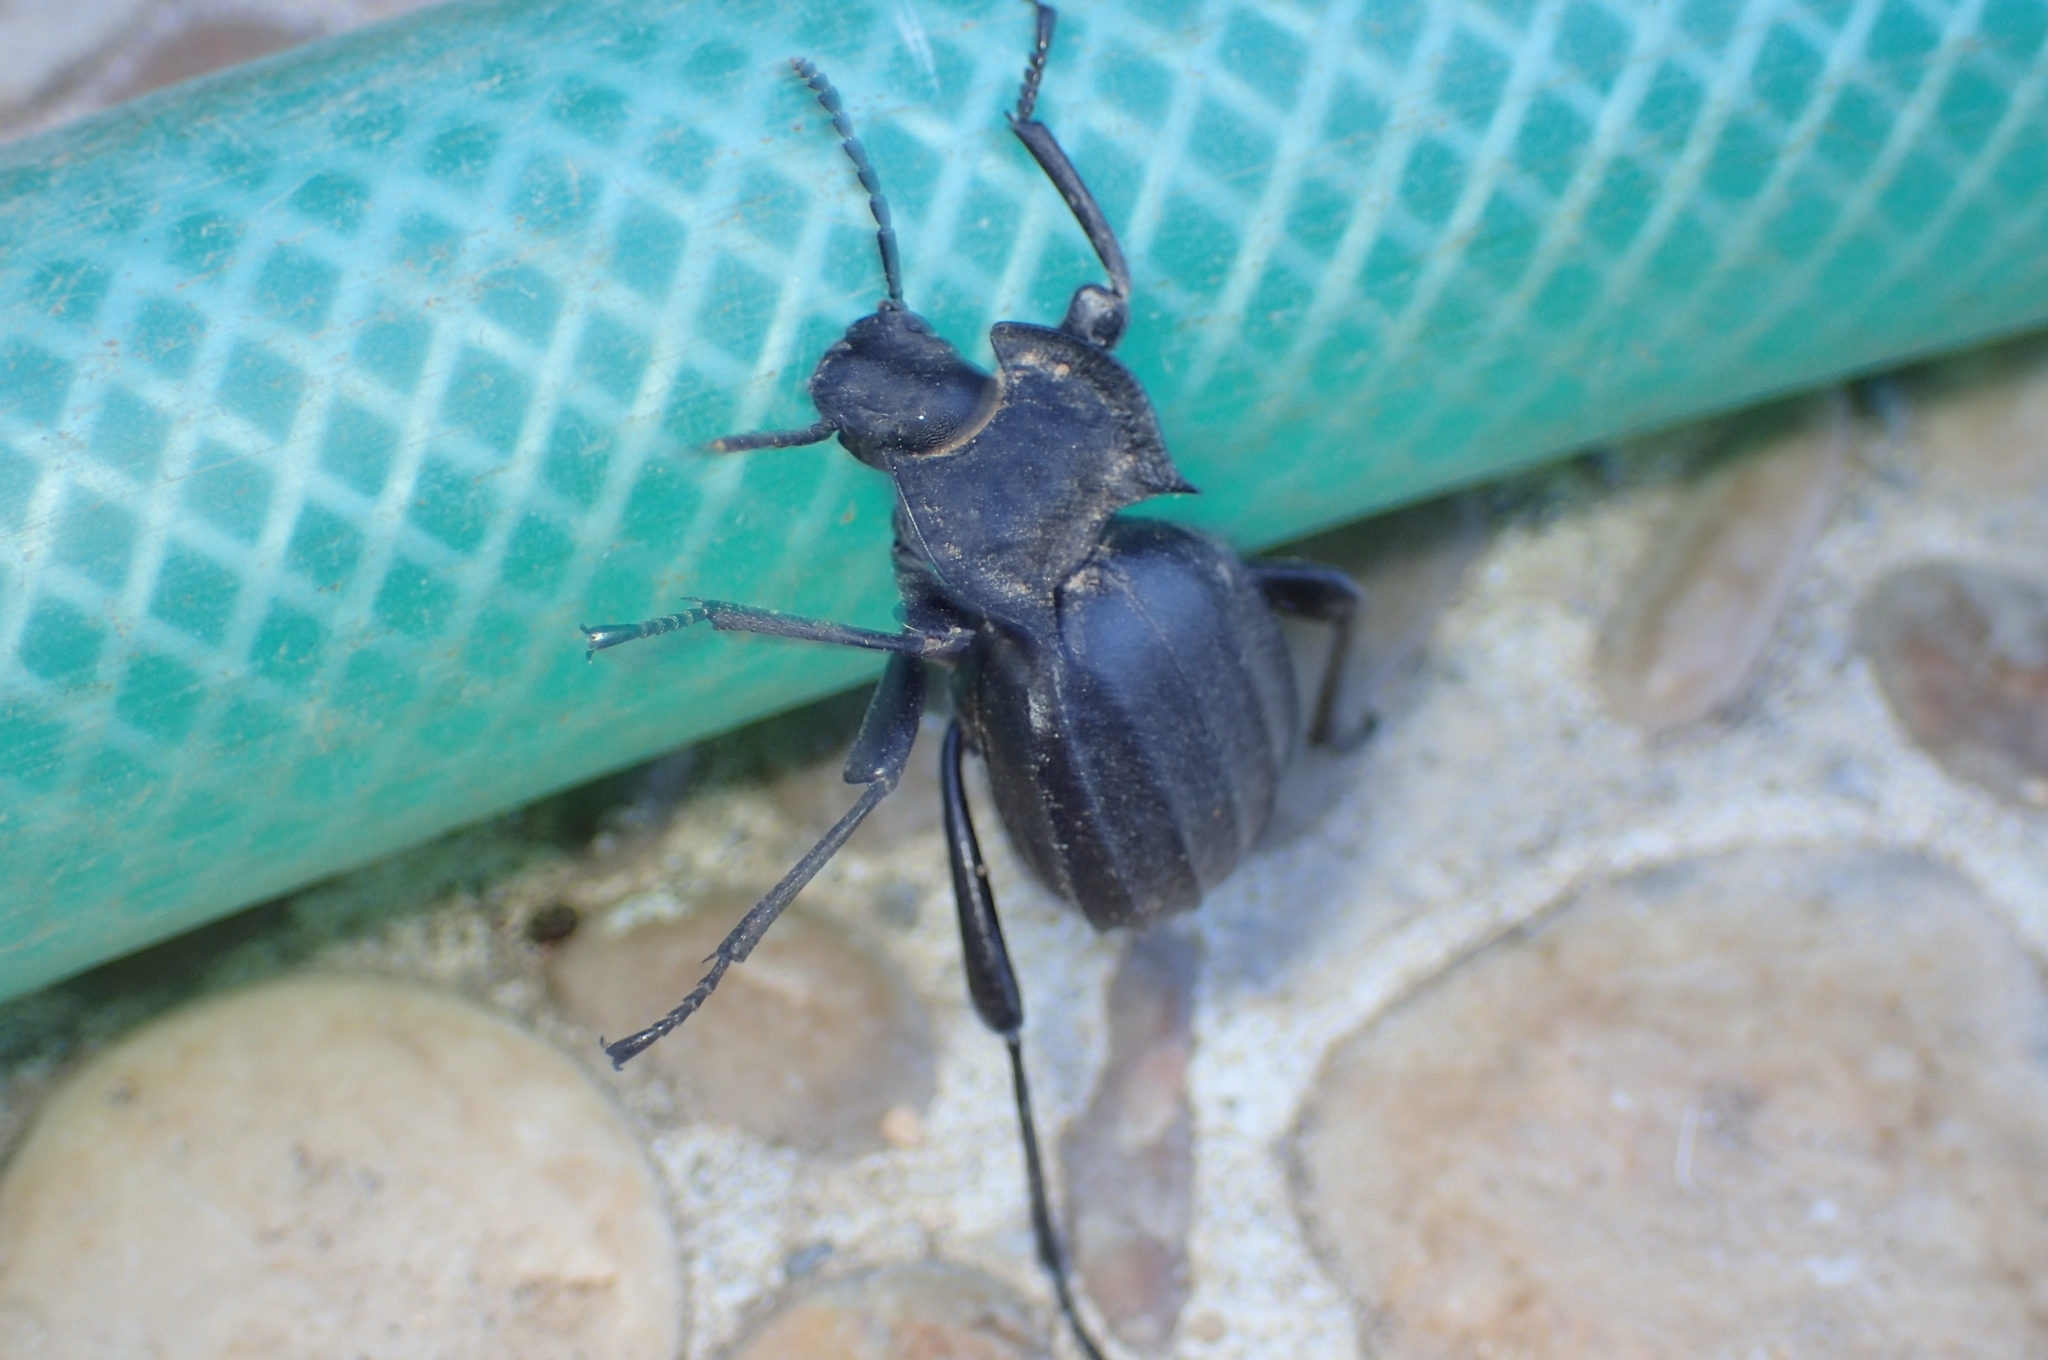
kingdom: Animalia
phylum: Arthropoda
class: Insecta
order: Coleoptera
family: Tenebrionidae
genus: Akis
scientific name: Akis
